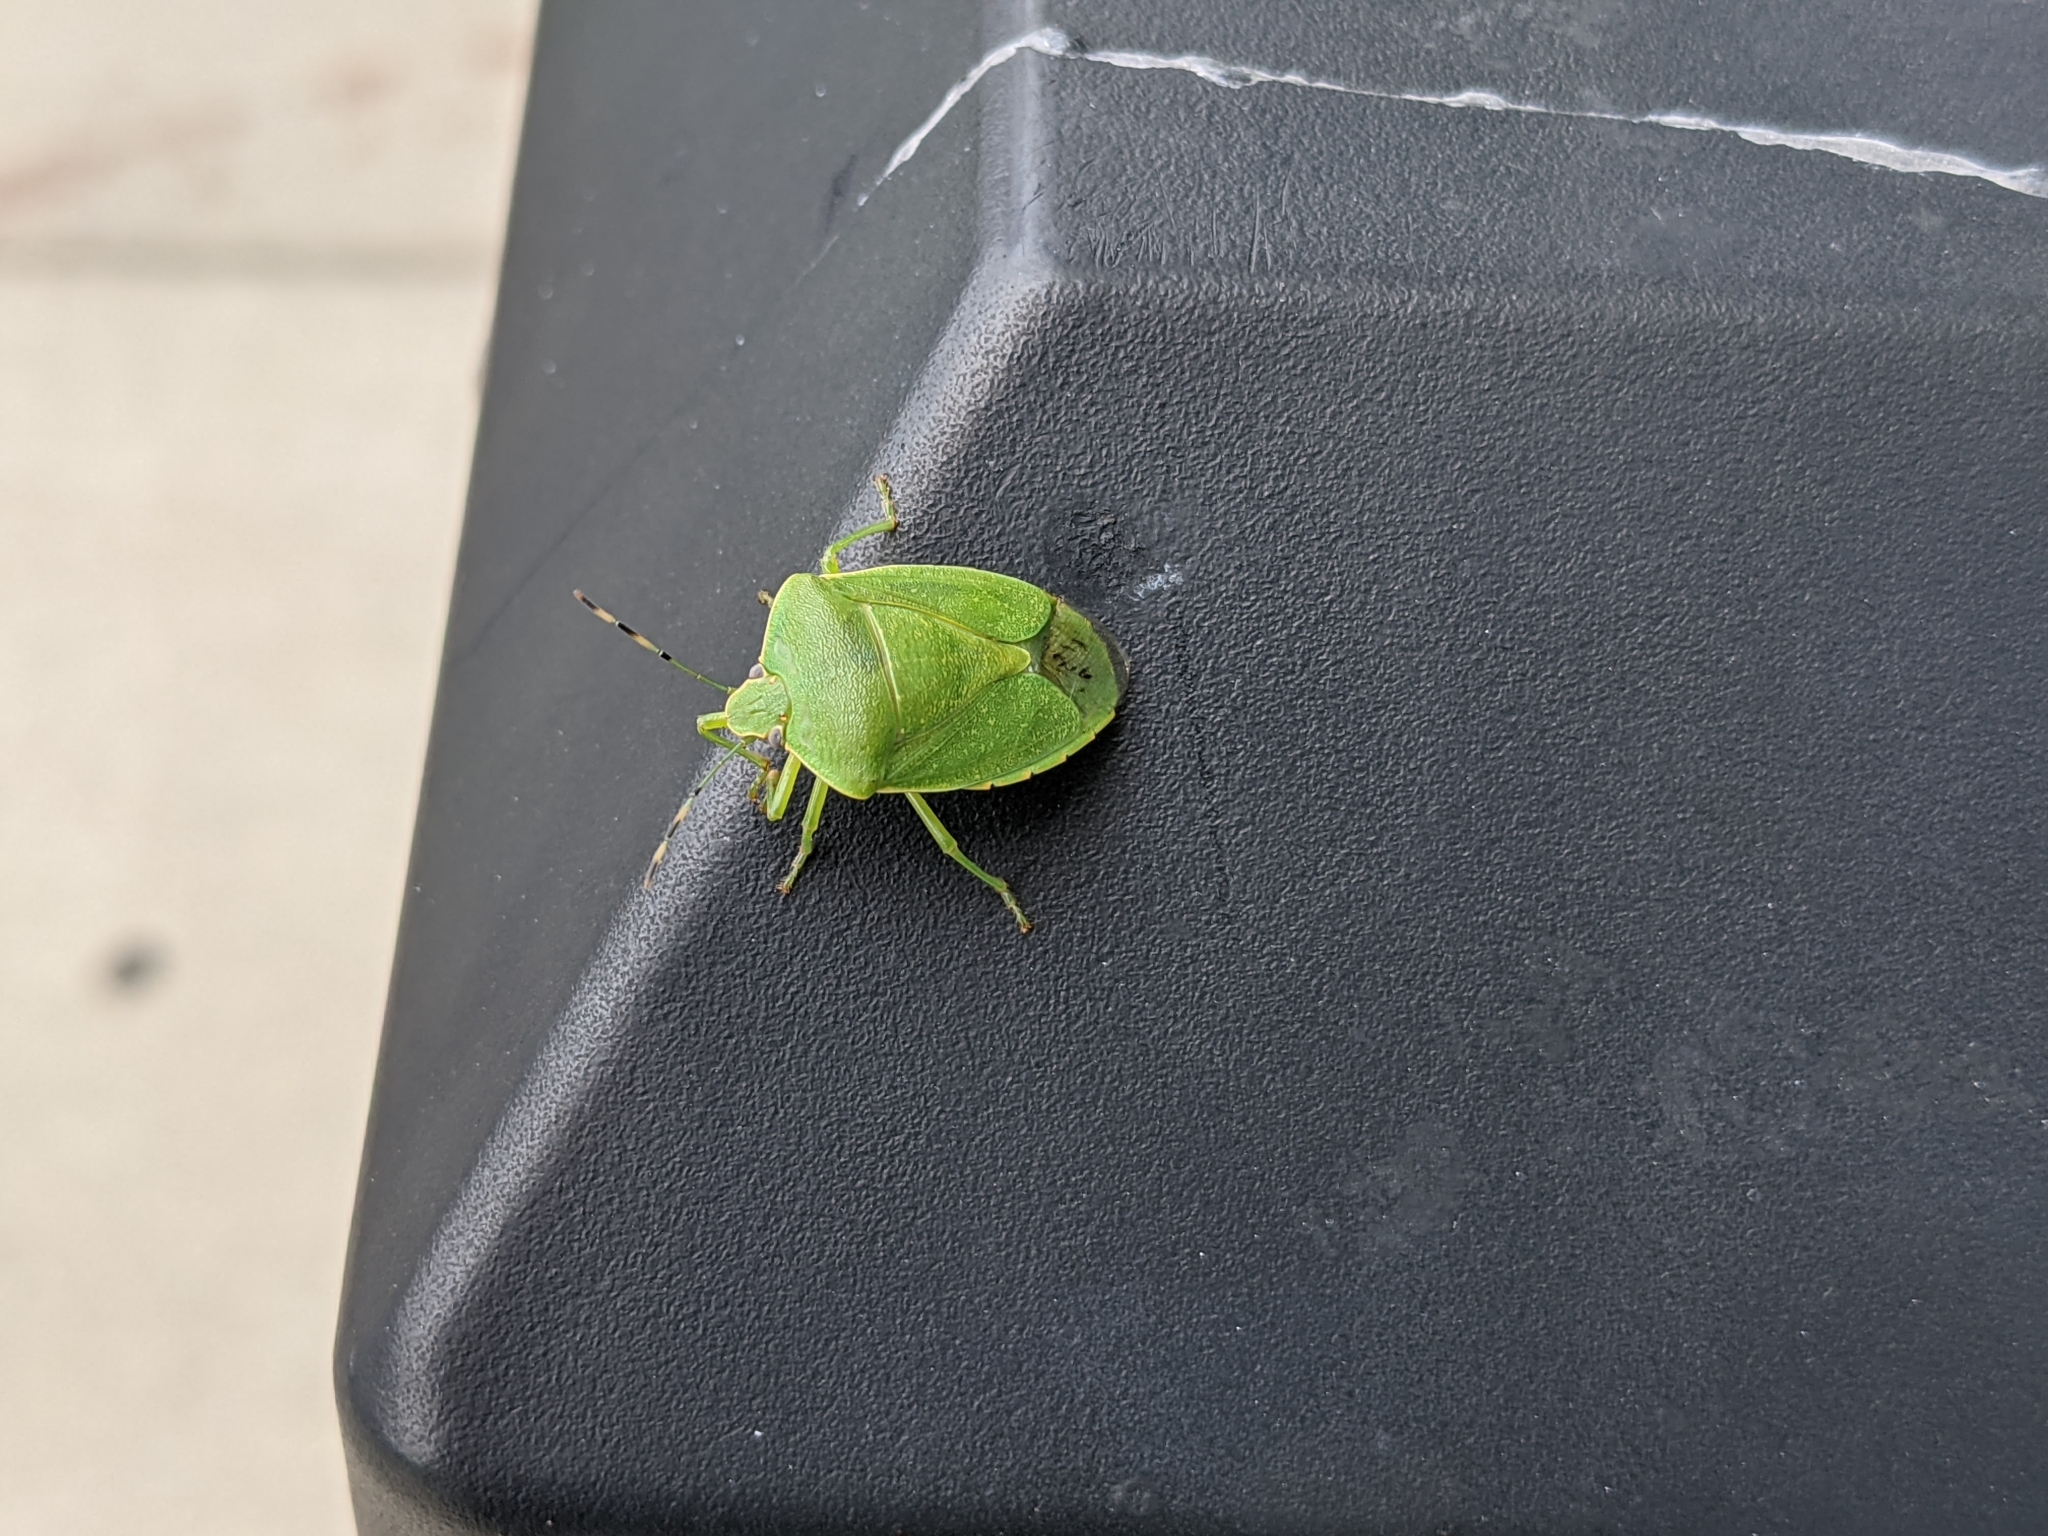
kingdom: Animalia
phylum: Arthropoda
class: Insecta
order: Hemiptera
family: Pentatomidae
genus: Chinavia
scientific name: Chinavia hilaris
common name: Green stink bug
